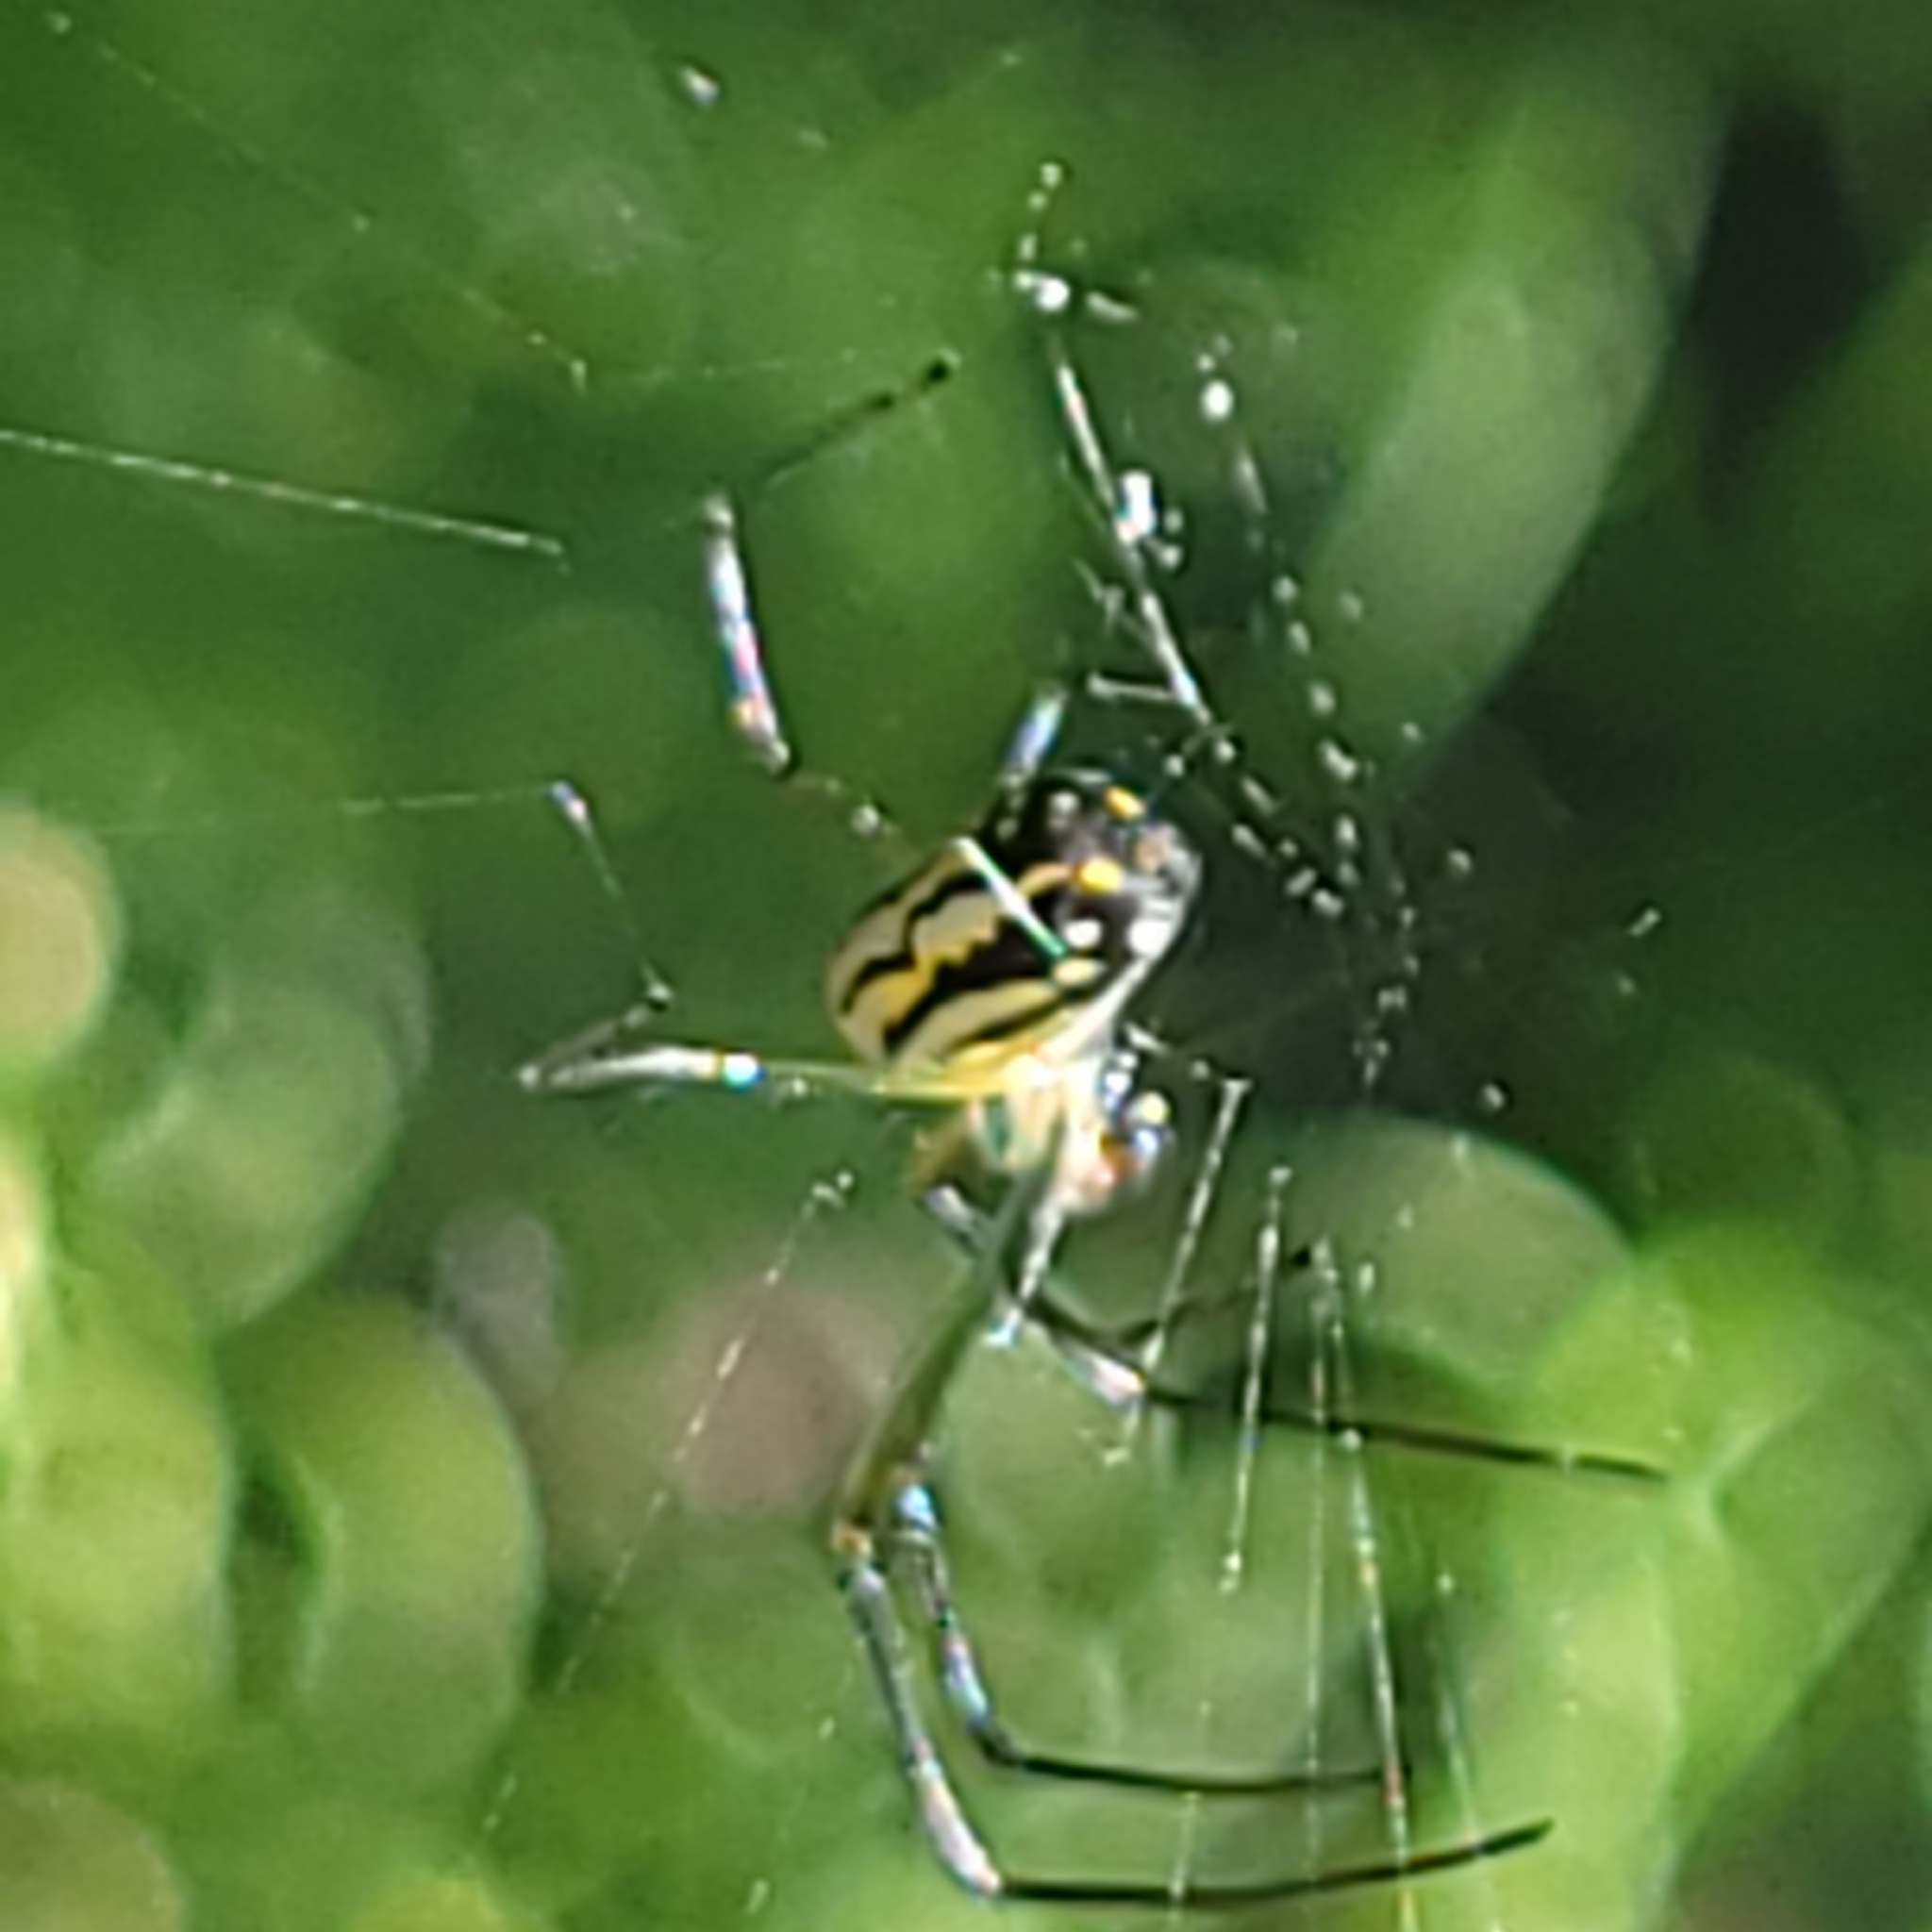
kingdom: Animalia
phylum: Arthropoda
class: Arachnida
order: Araneae
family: Tetragnathidae
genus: Leucauge
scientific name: Leucauge argyra
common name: Longjawed orb weavers
